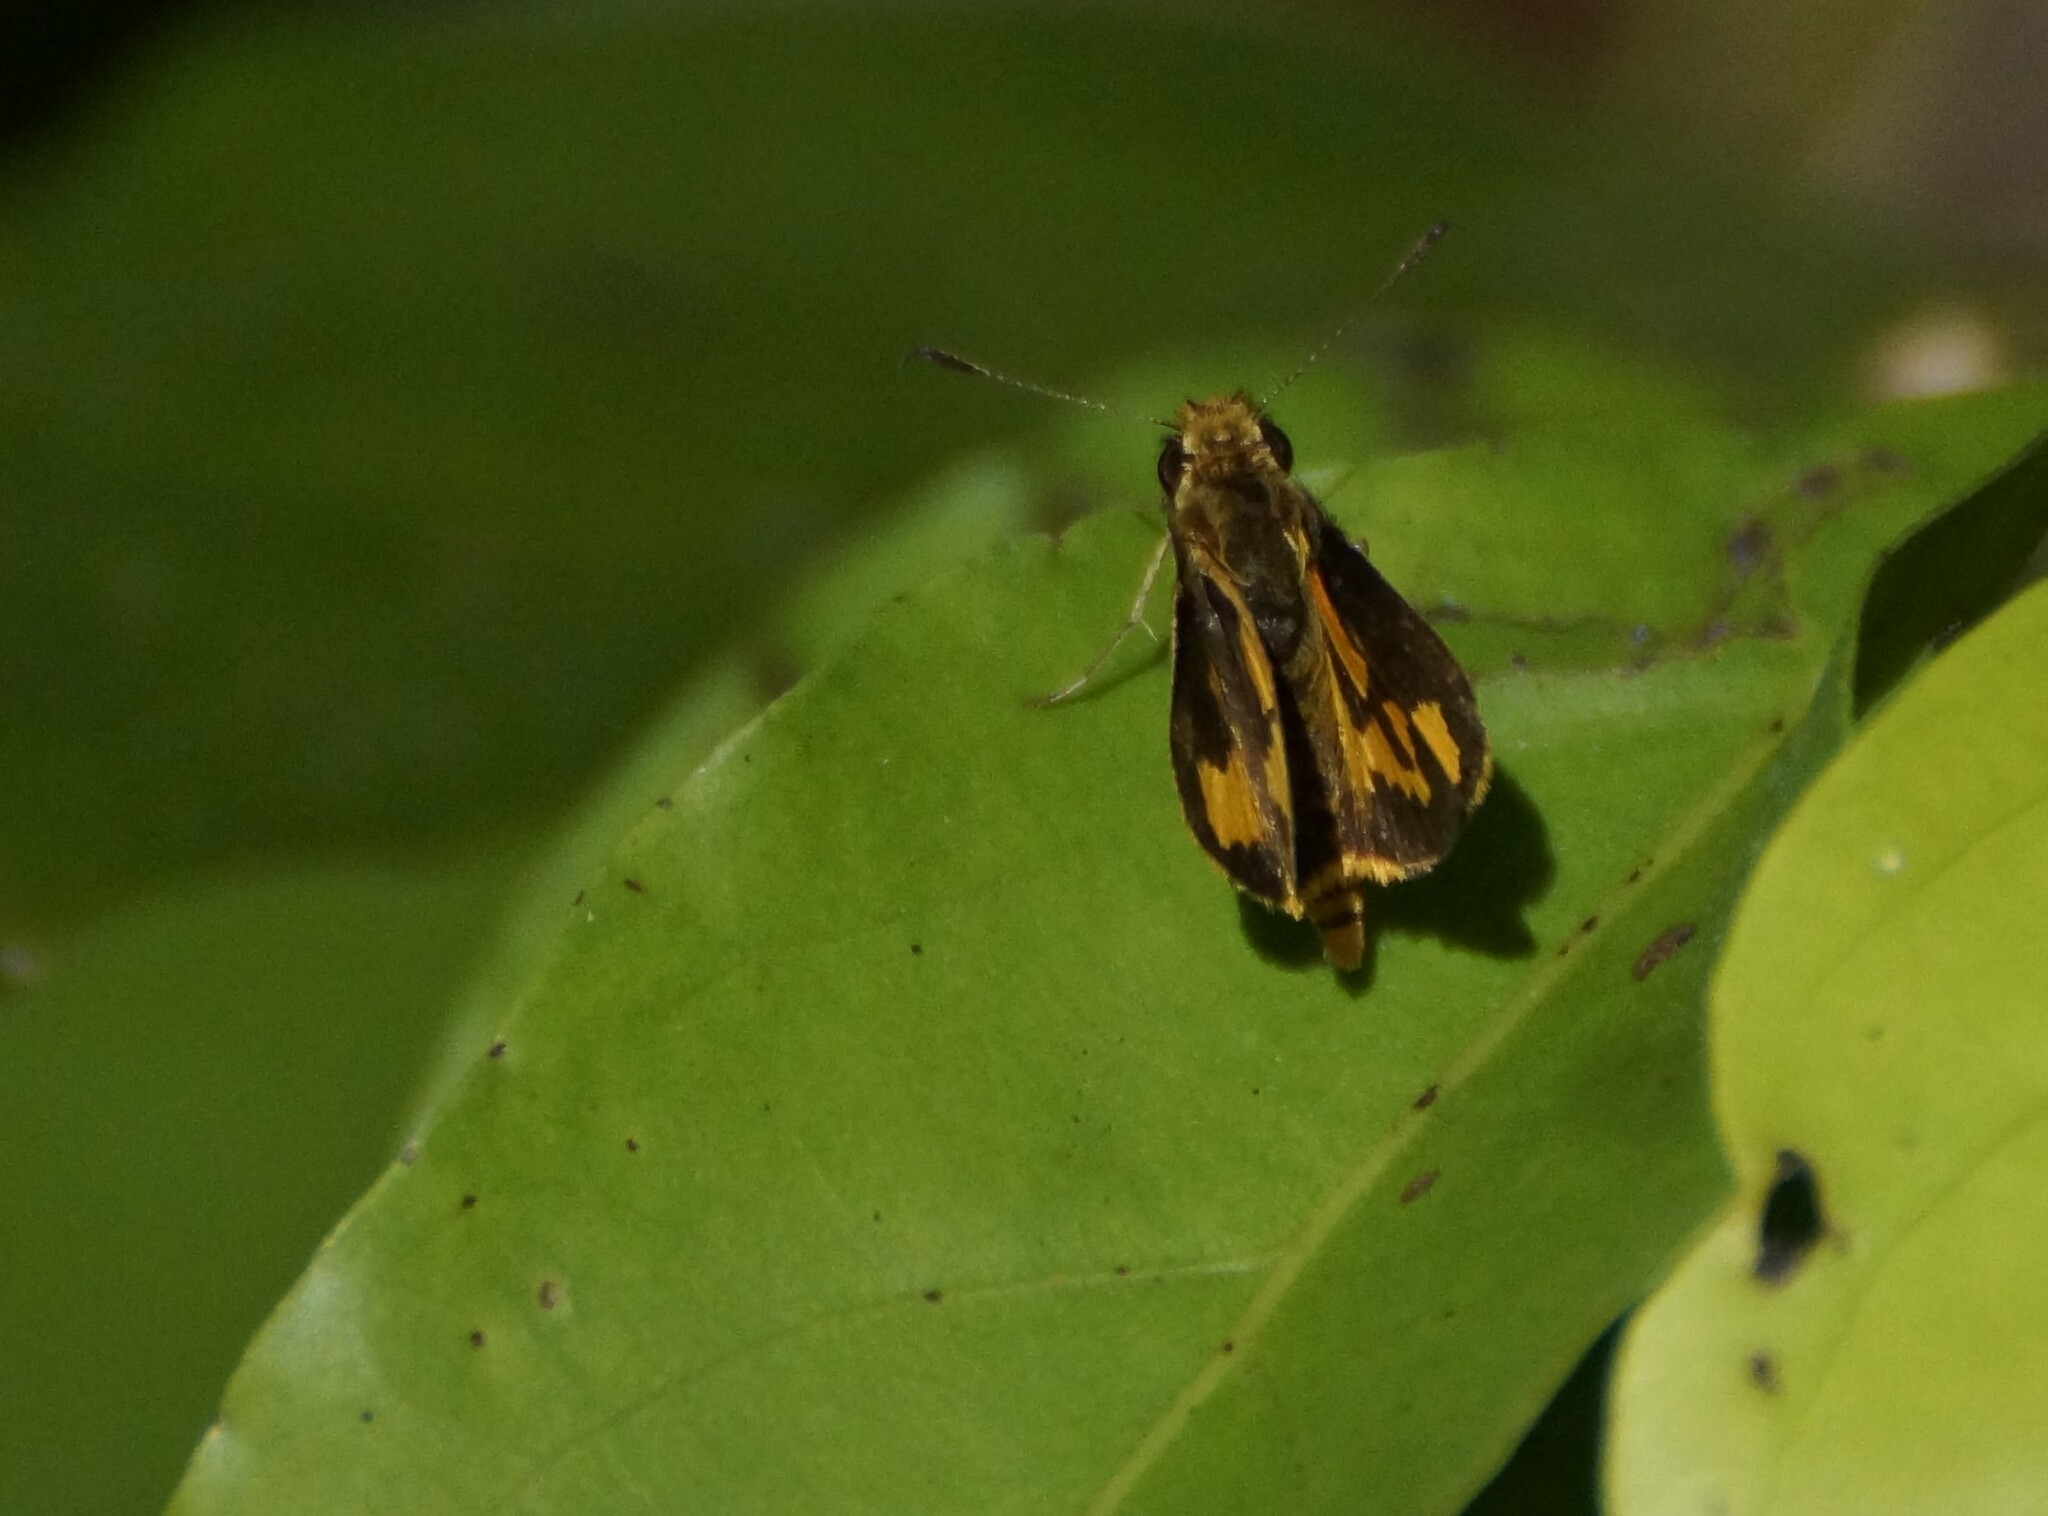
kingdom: Animalia
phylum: Arthropoda
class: Insecta
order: Lepidoptera
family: Hesperiidae
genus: Ocybadistes
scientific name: Ocybadistes ardea
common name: Dark orange dart
